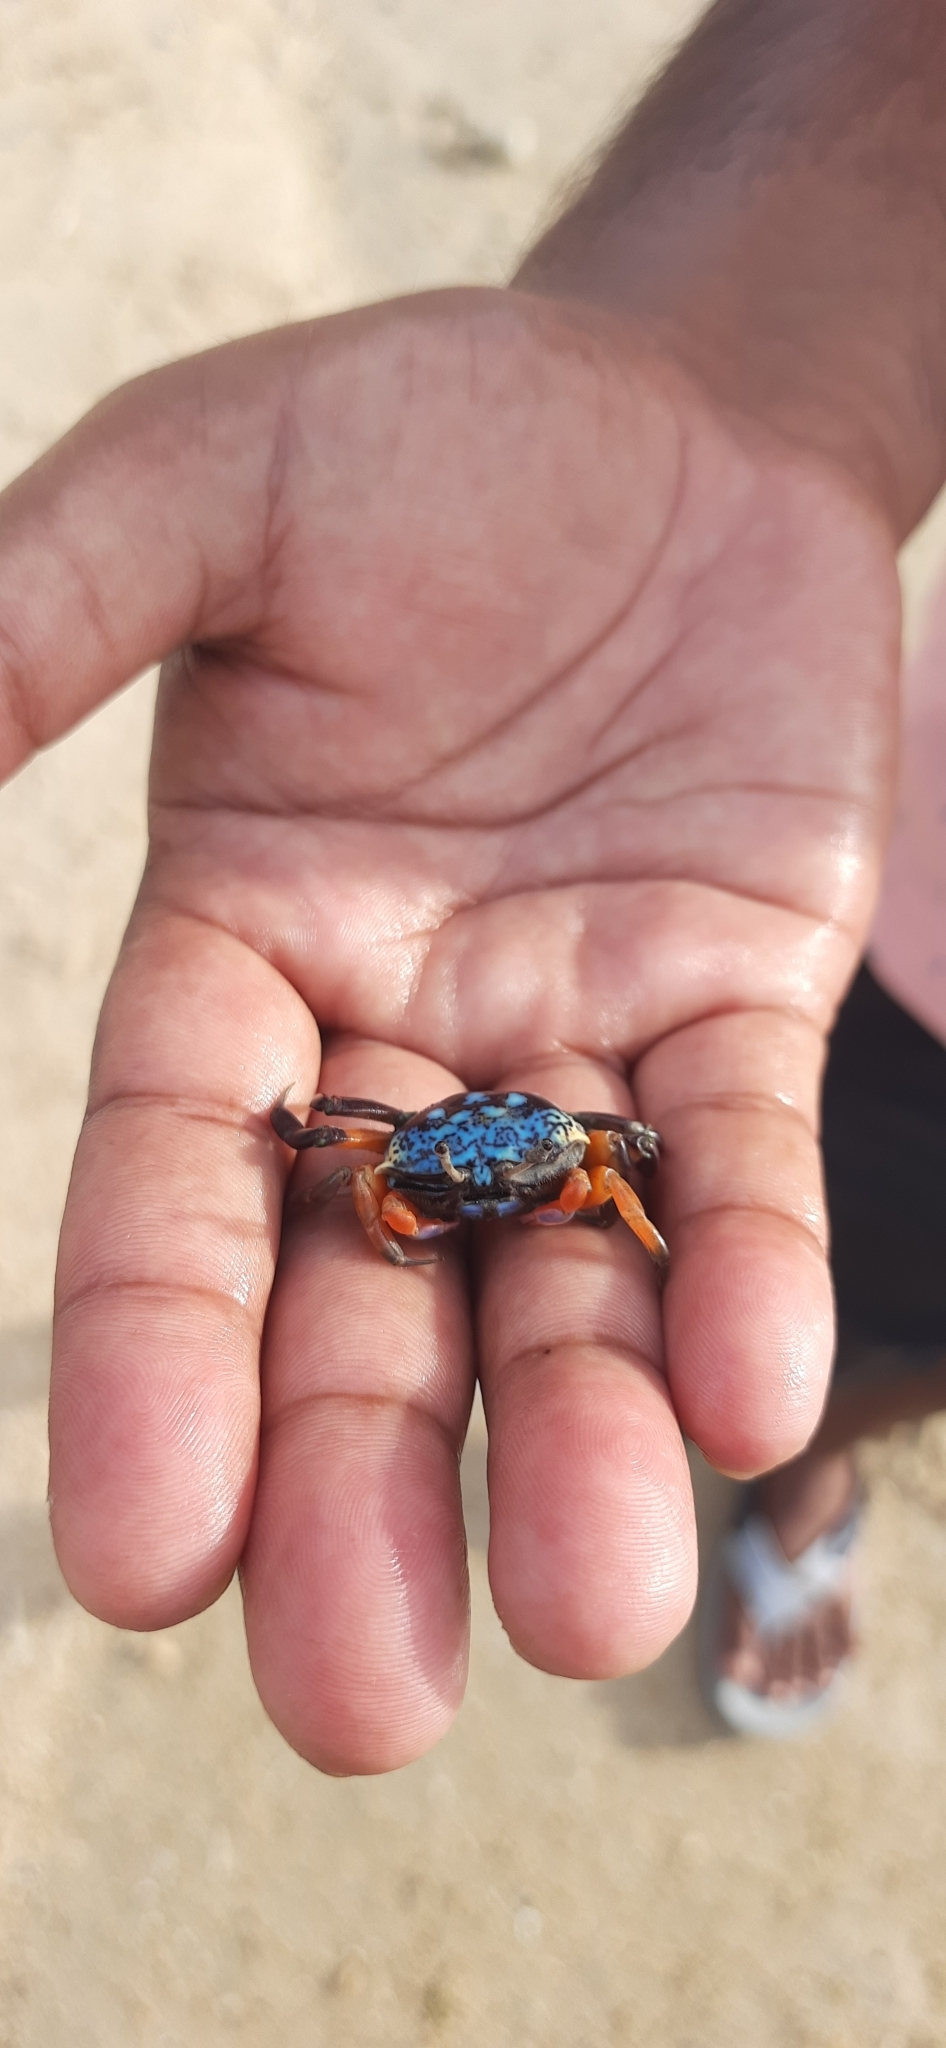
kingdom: Animalia
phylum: Arthropoda
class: Malacostraca
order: Decapoda
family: Ocypodidae
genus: Gelasimus
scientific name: Gelasimus tetragonon
